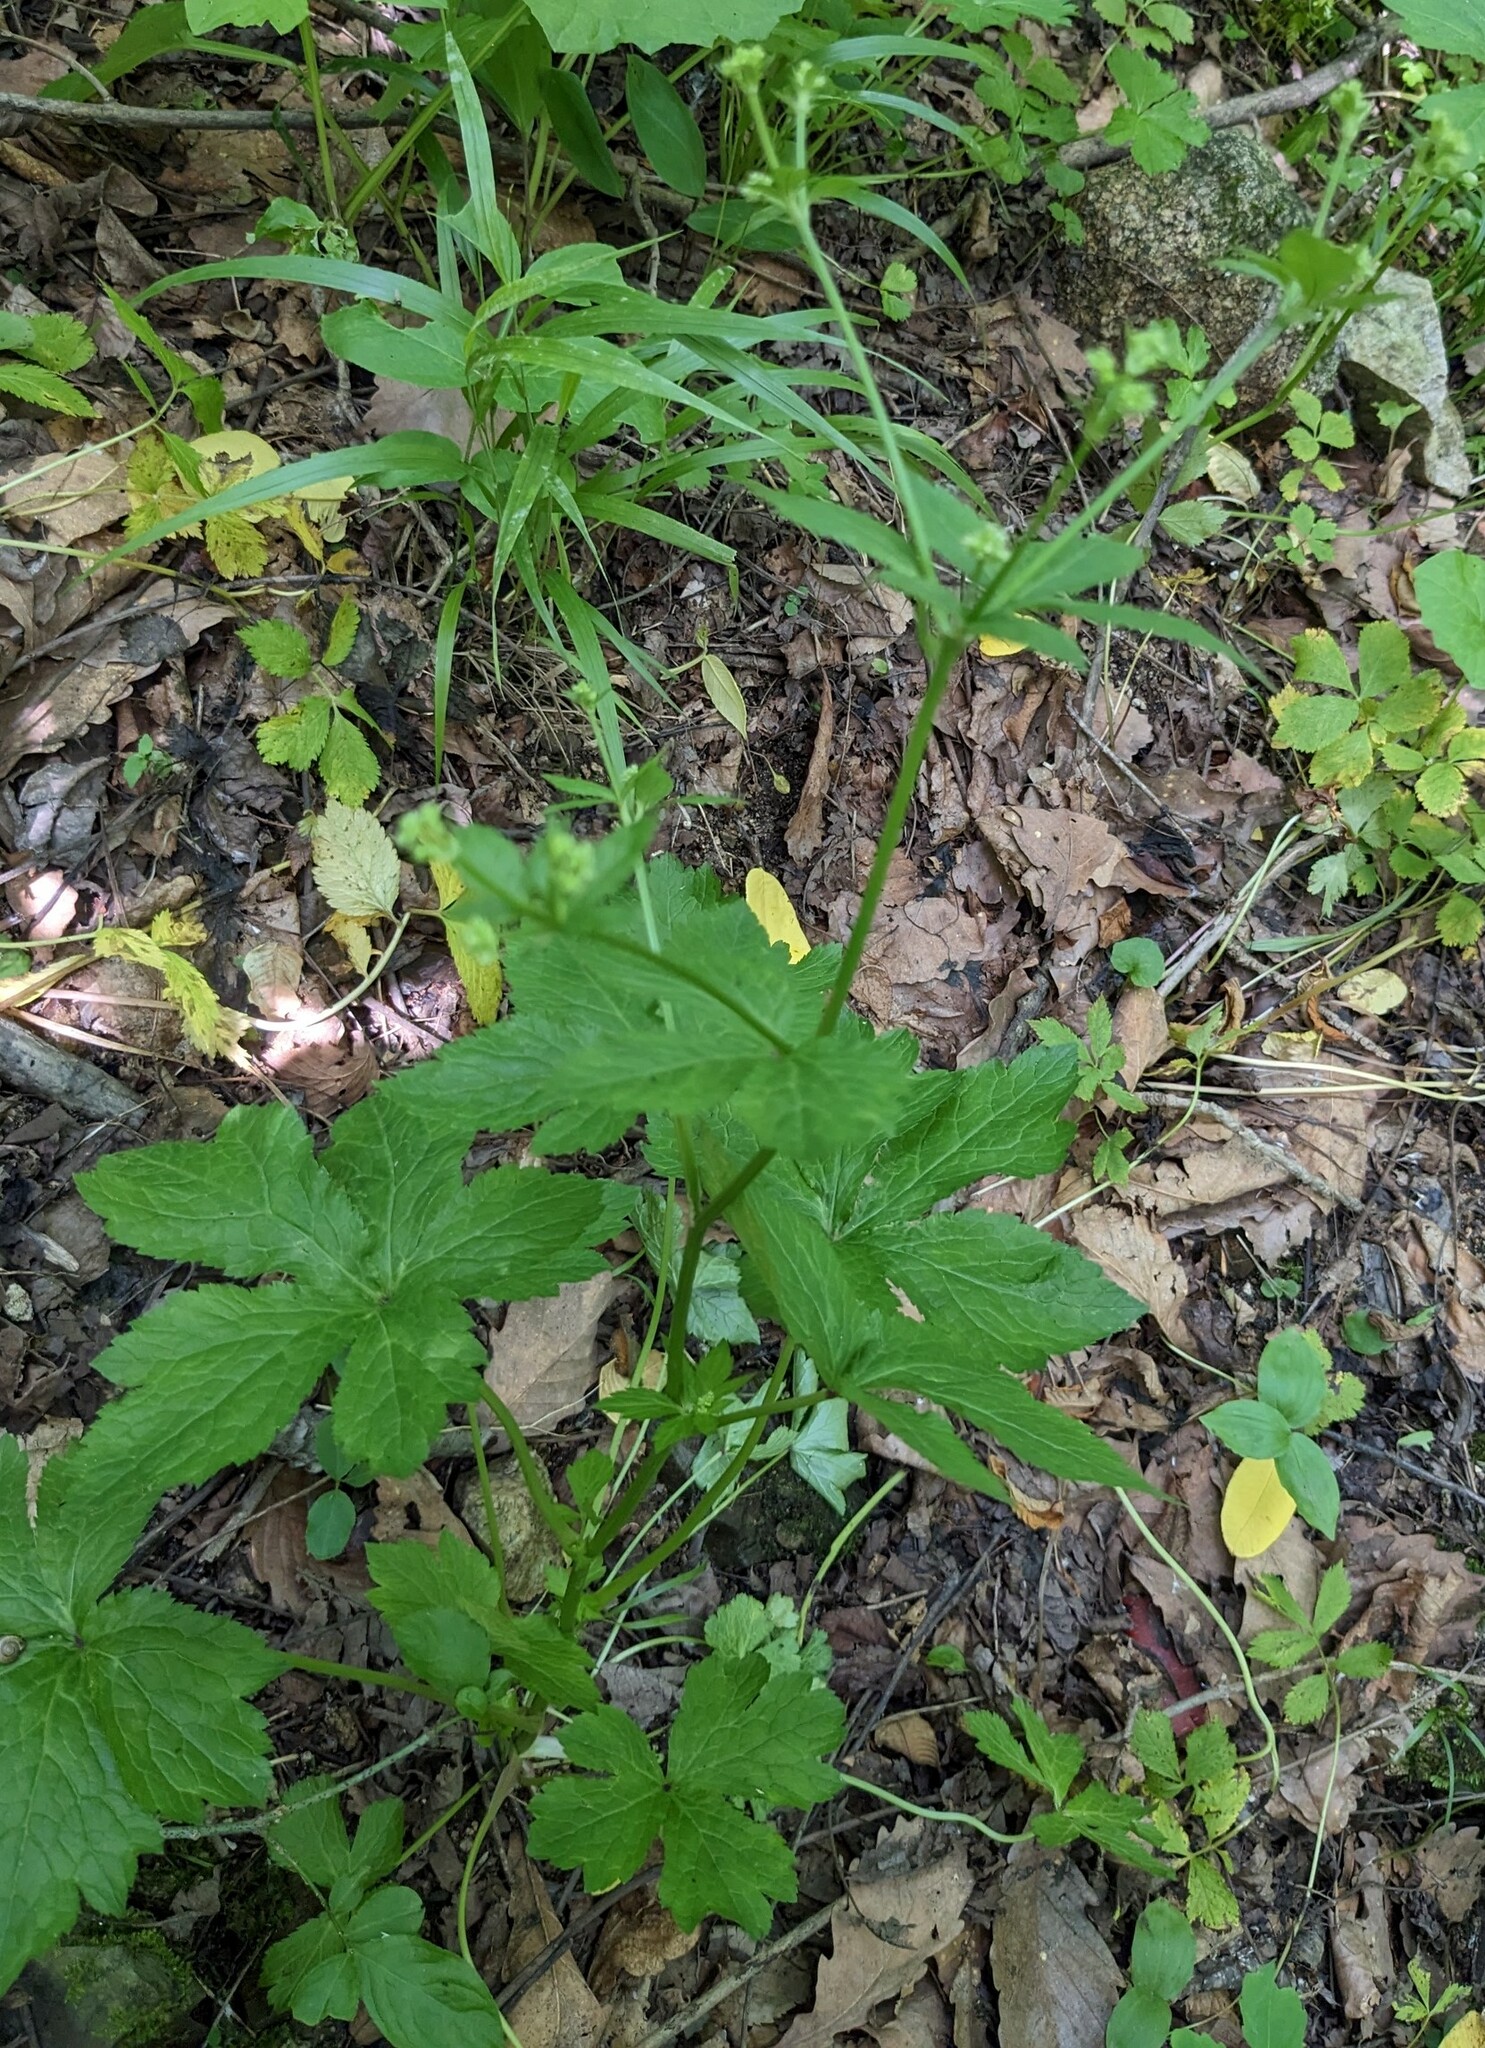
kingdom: Plantae
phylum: Tracheophyta
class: Magnoliopsida
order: Apiales
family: Apiaceae
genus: Sanicula
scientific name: Sanicula chinensis
